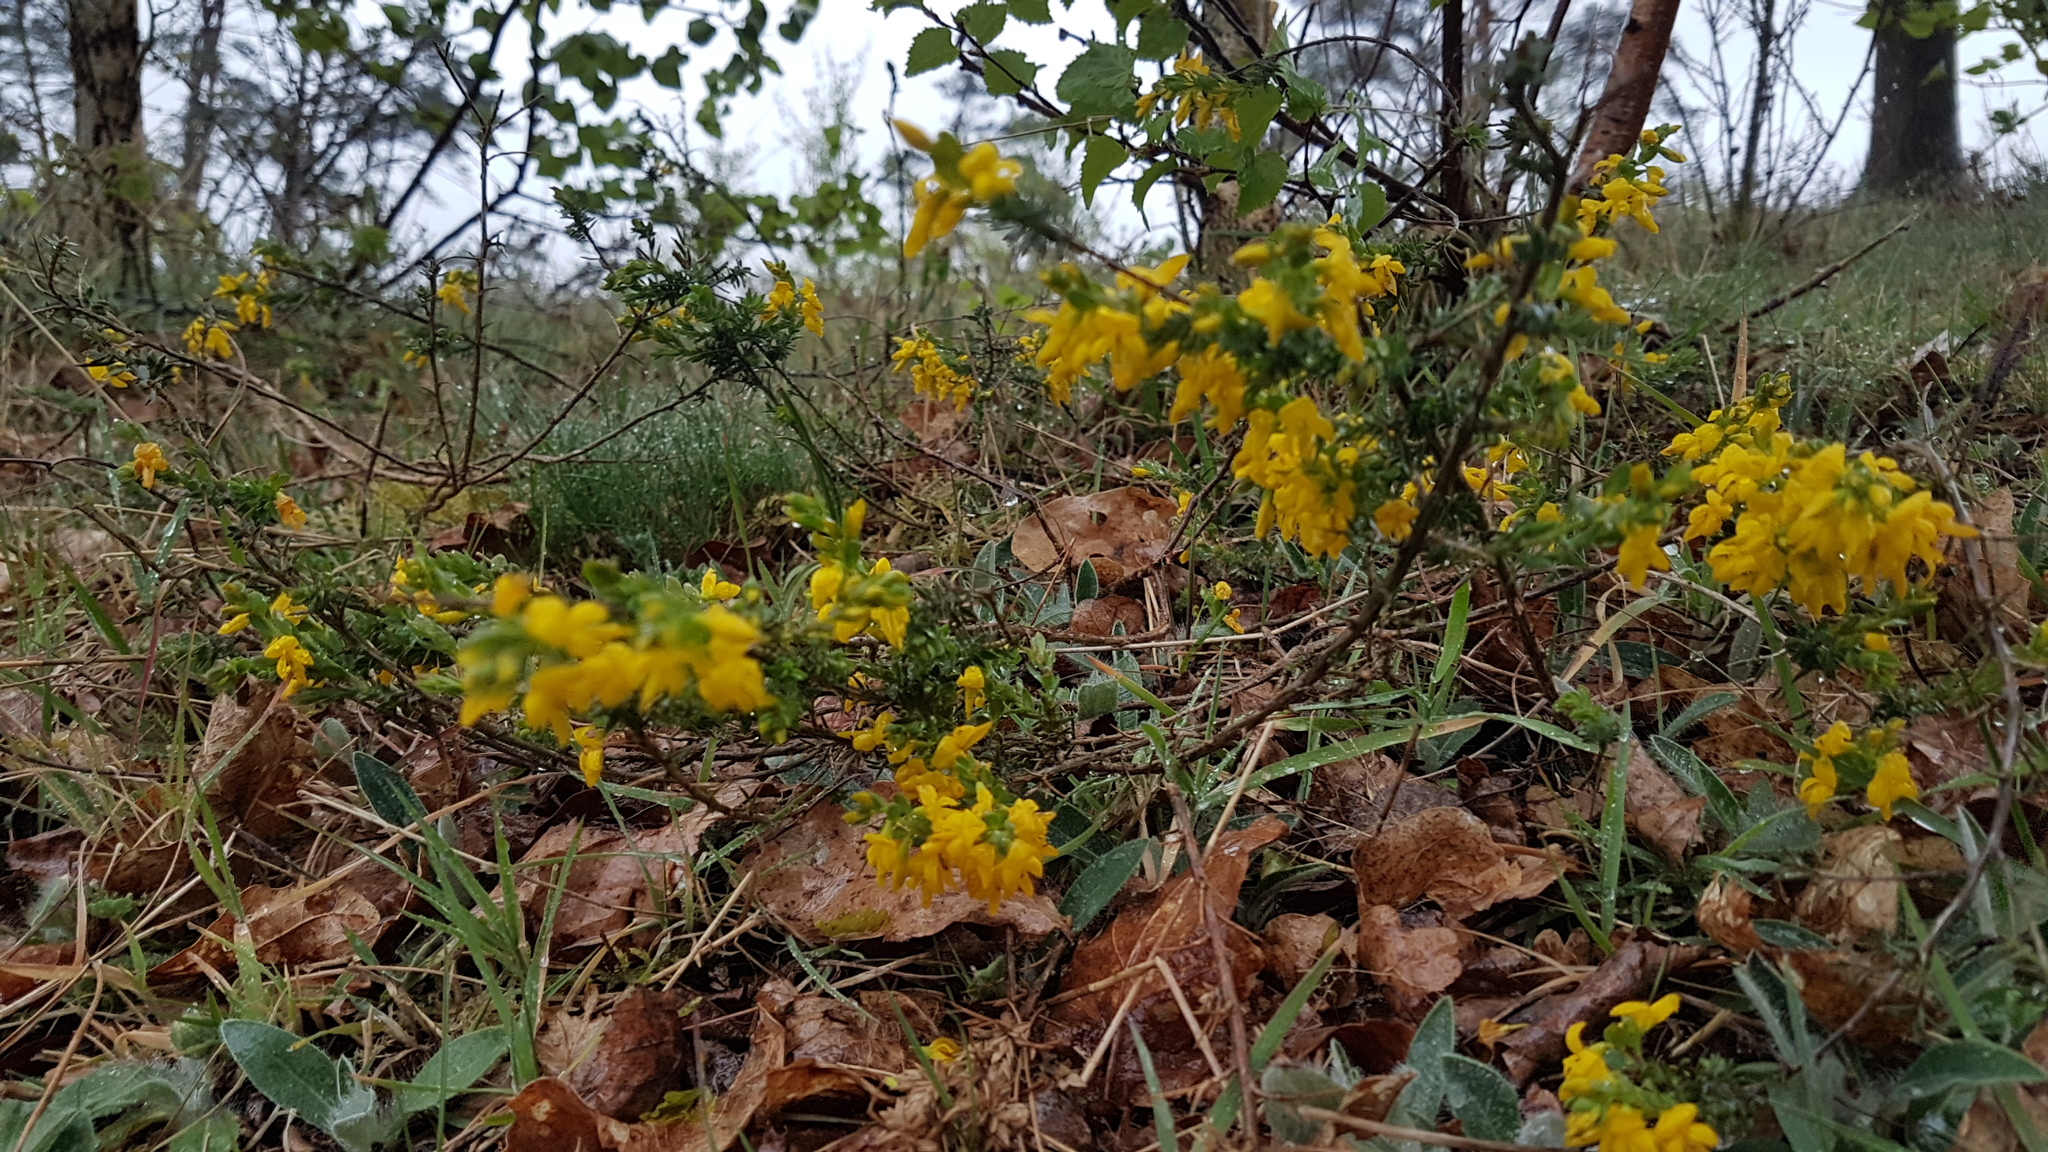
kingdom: Plantae
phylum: Tracheophyta
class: Magnoliopsida
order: Fabales
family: Fabaceae
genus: Genista
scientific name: Genista anglica
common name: Petty whin
